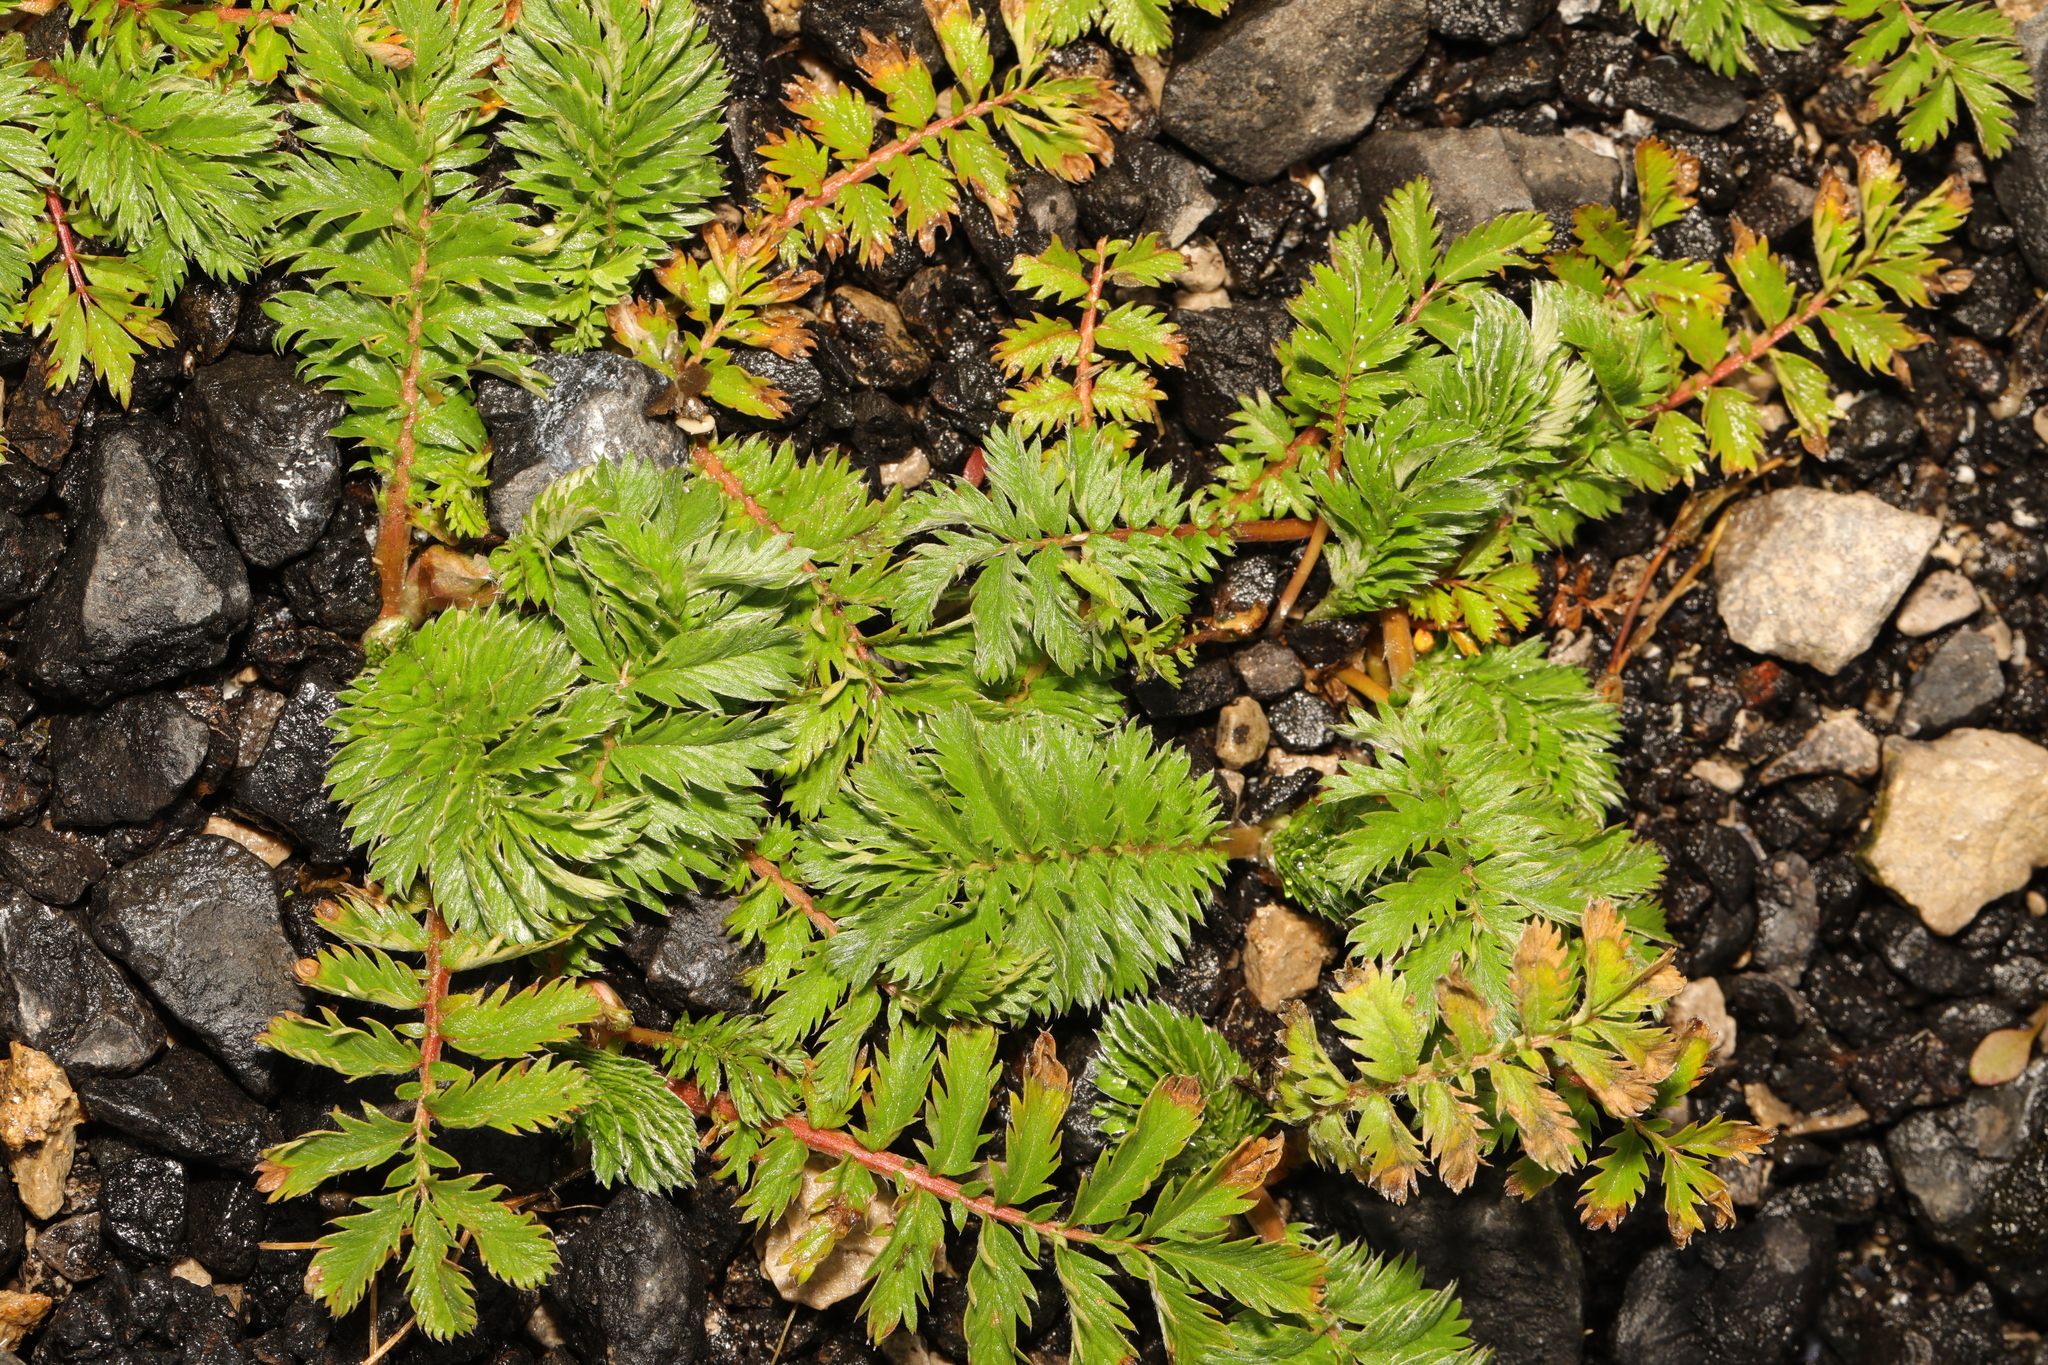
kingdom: Plantae
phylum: Tracheophyta
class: Magnoliopsida
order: Rosales
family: Rosaceae
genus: Argentina
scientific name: Argentina anserina
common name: Common silverweed
